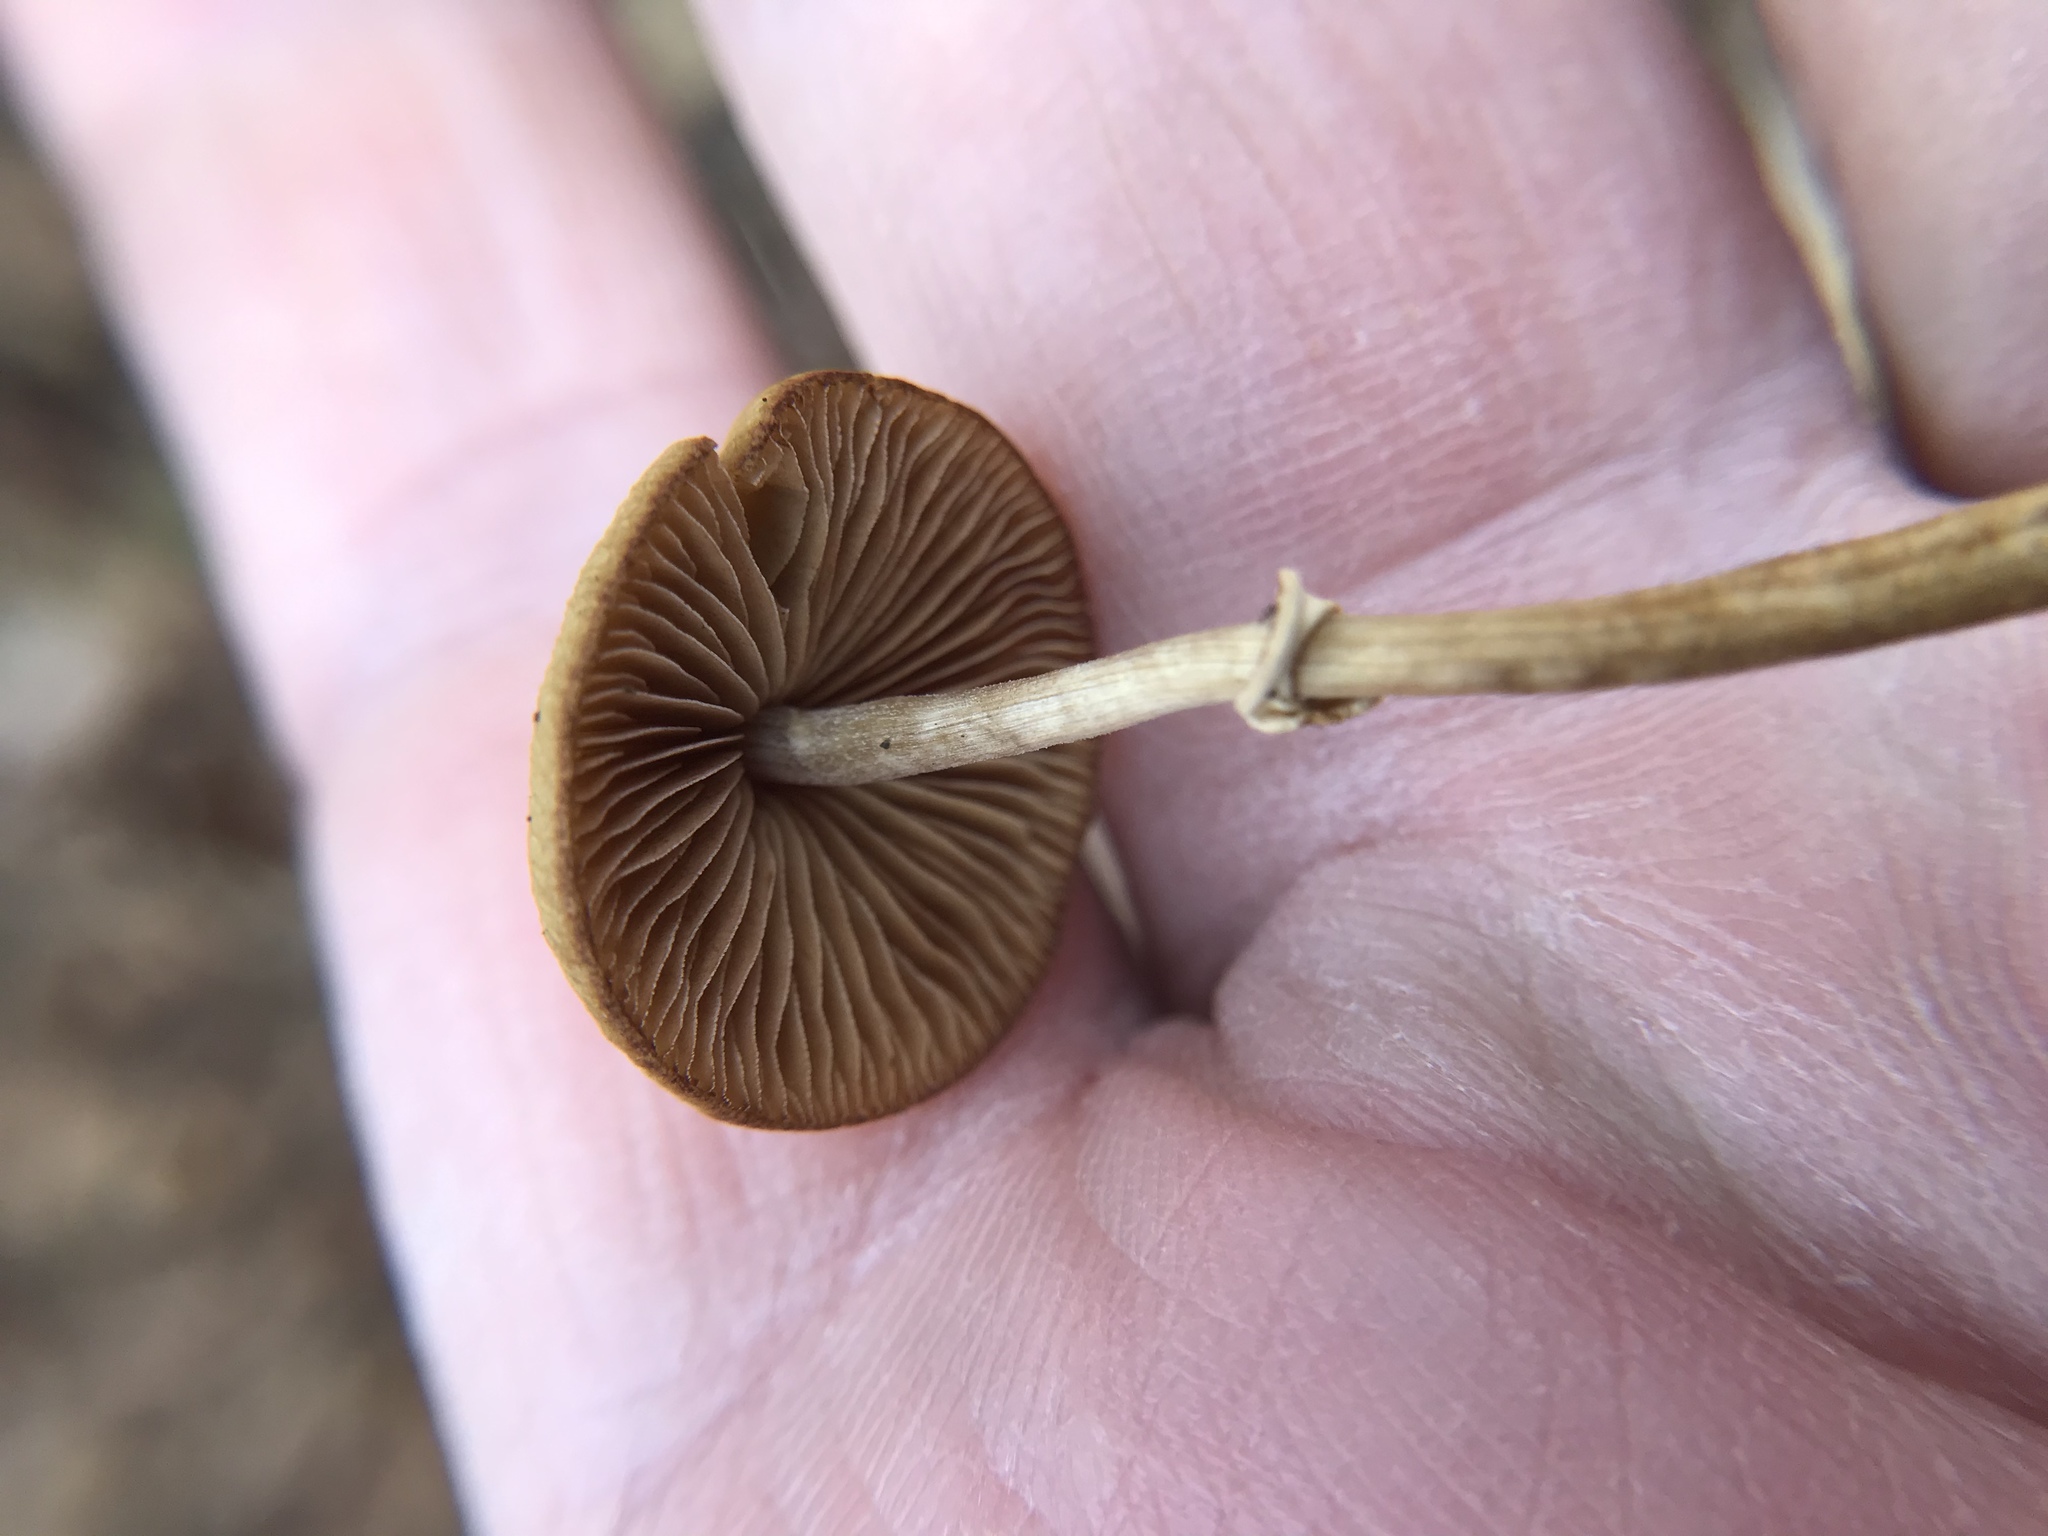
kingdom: Fungi
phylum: Basidiomycota
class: Agaricomycetes
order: Agaricales
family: Bolbitiaceae
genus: Conocybe
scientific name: Conocybe rugosa
